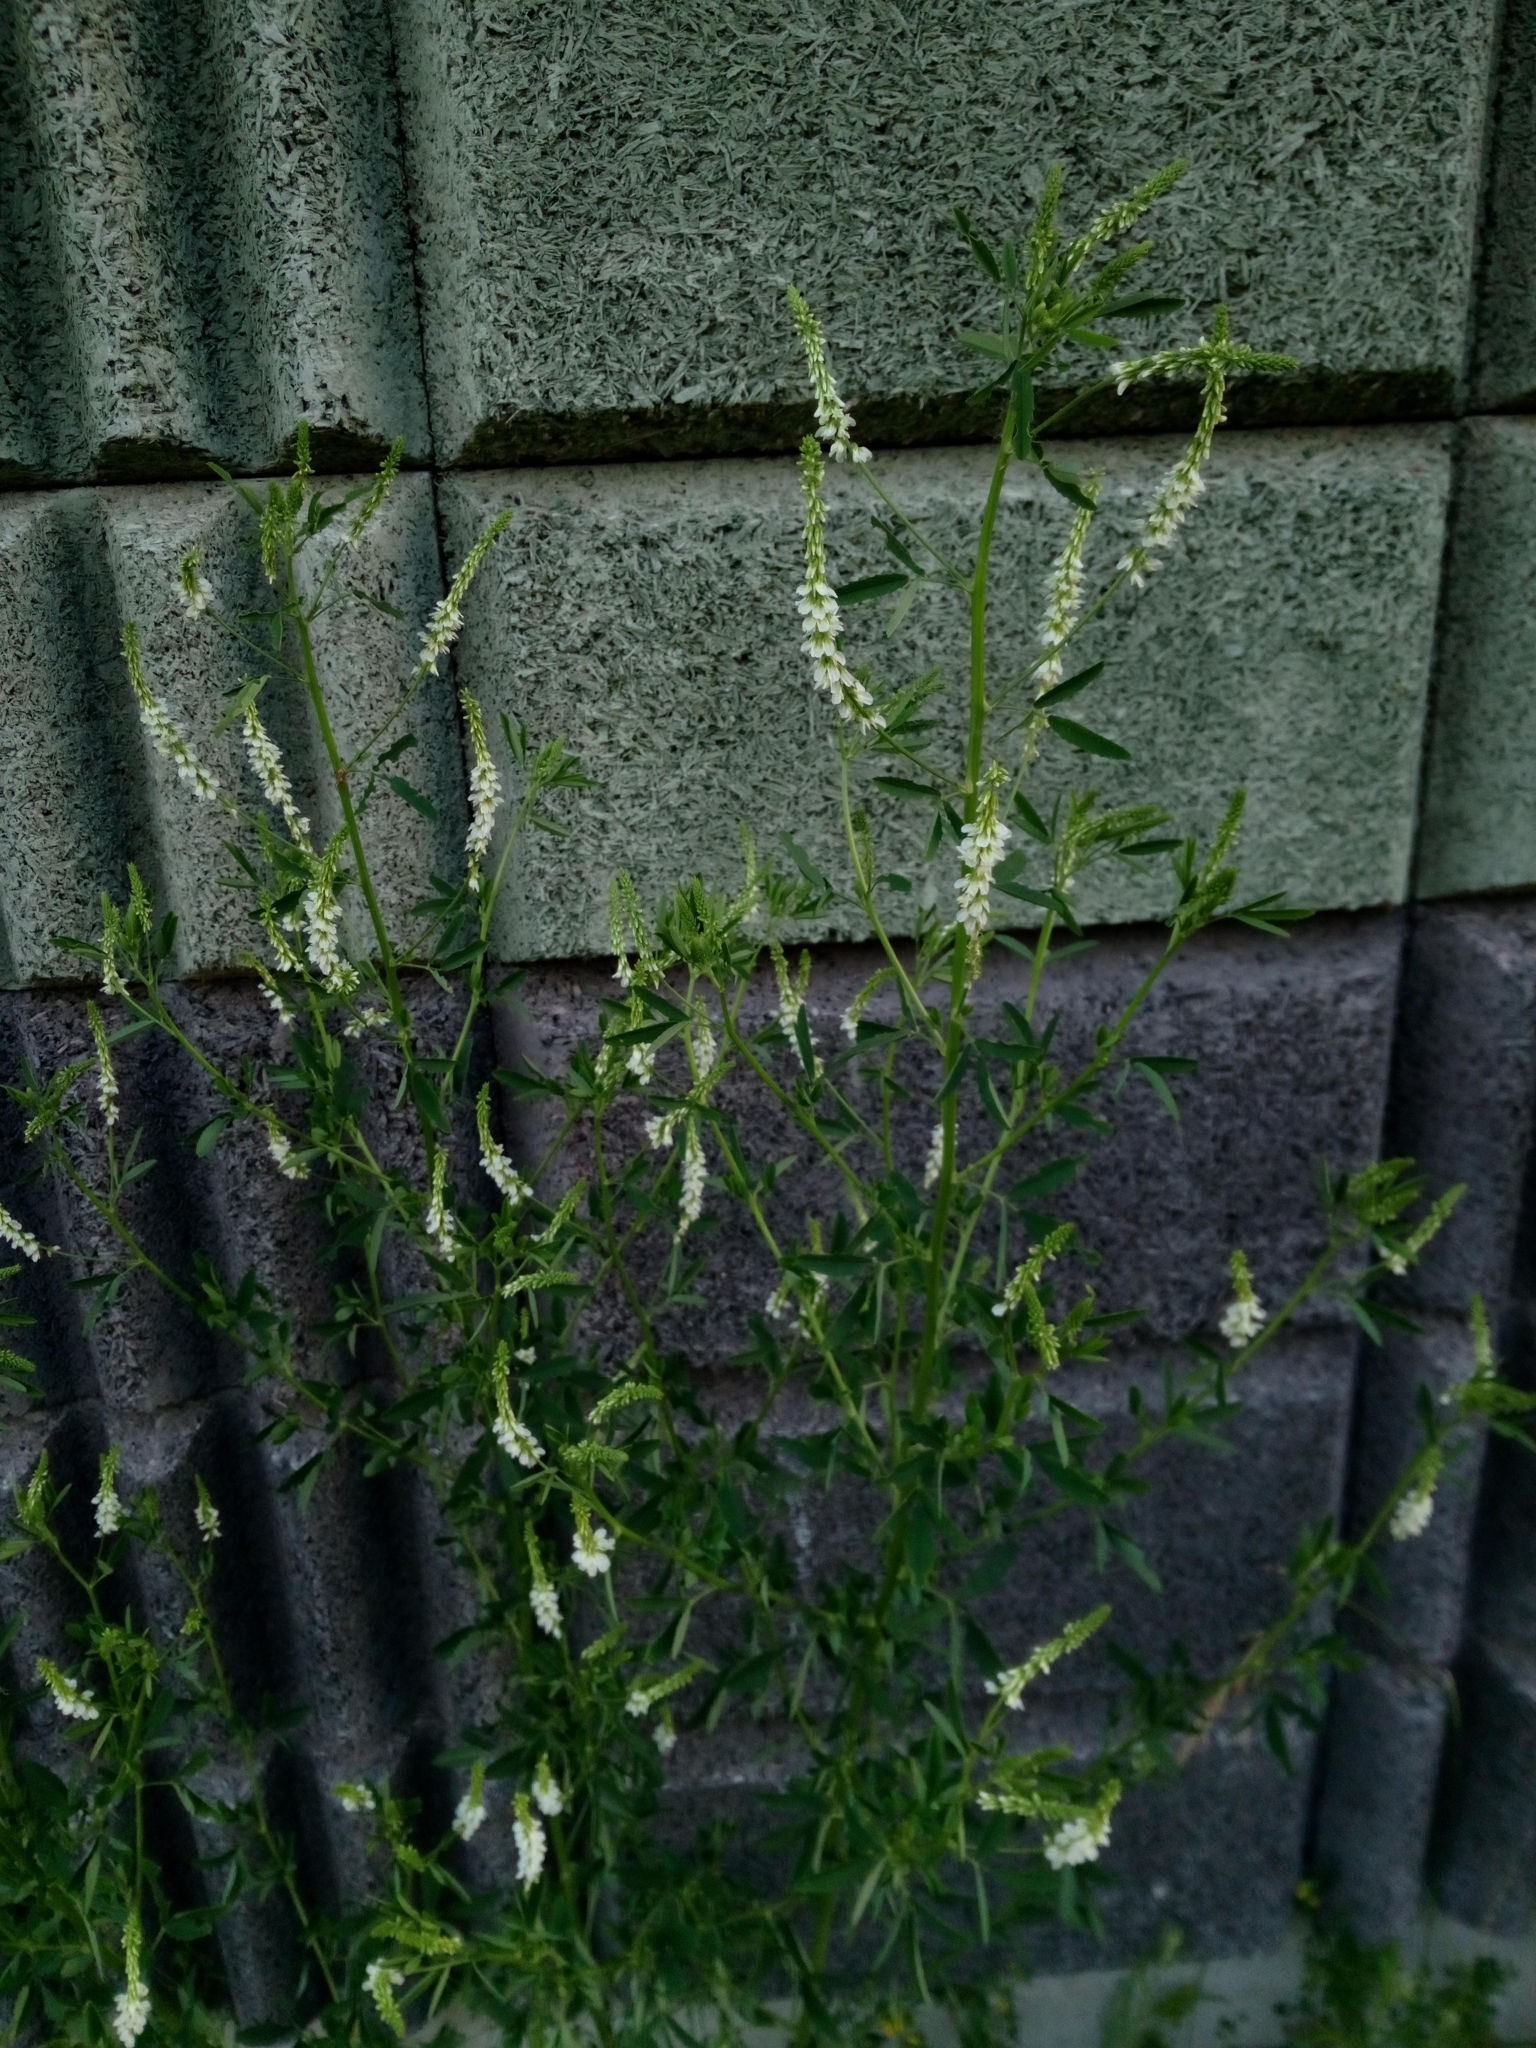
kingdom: Plantae
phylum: Tracheophyta
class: Magnoliopsida
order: Fabales
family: Fabaceae
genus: Melilotus
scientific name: Melilotus albus
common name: White melilot
